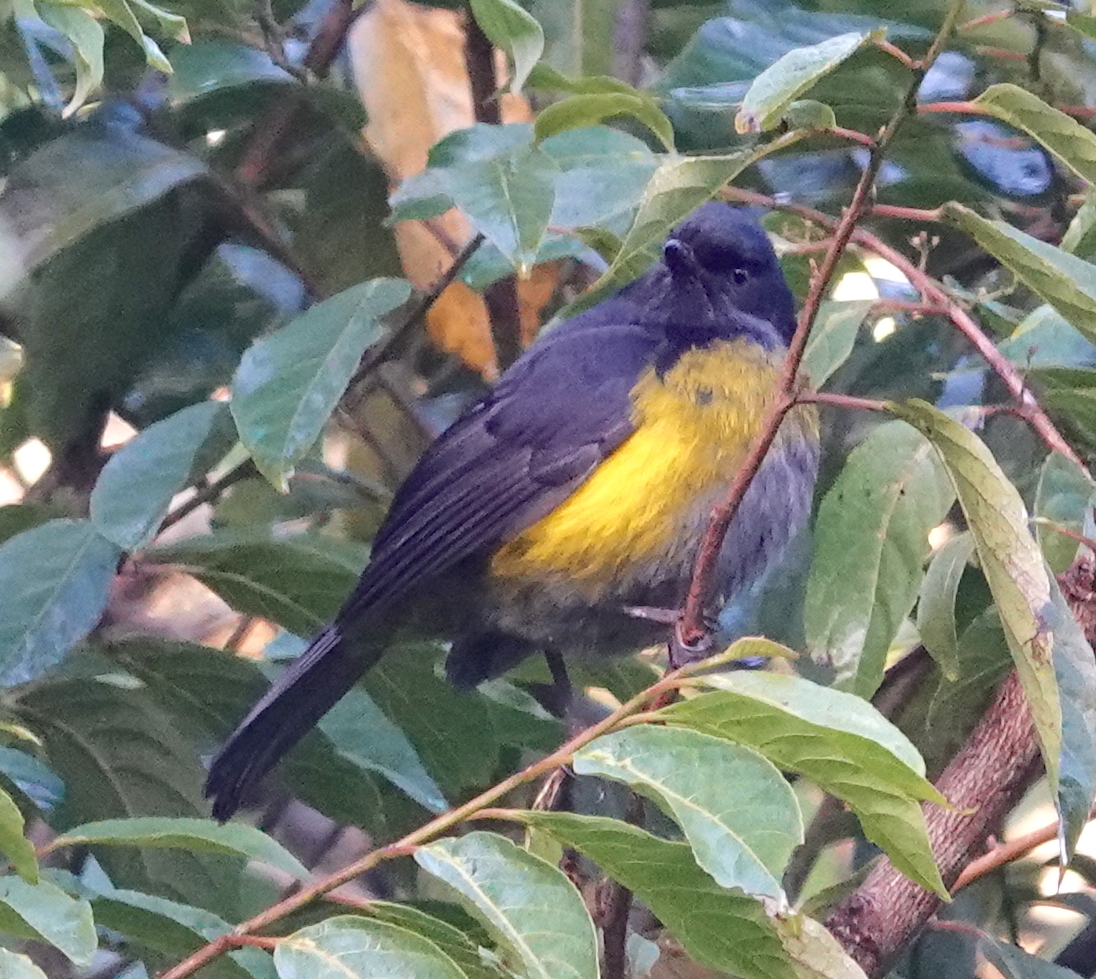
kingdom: Animalia
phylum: Chordata
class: Aves
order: Passeriformes
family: Ptilogonatidae
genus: Phainoptila
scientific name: Phainoptila melanoxantha
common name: Black-and-yellow phainoptila
